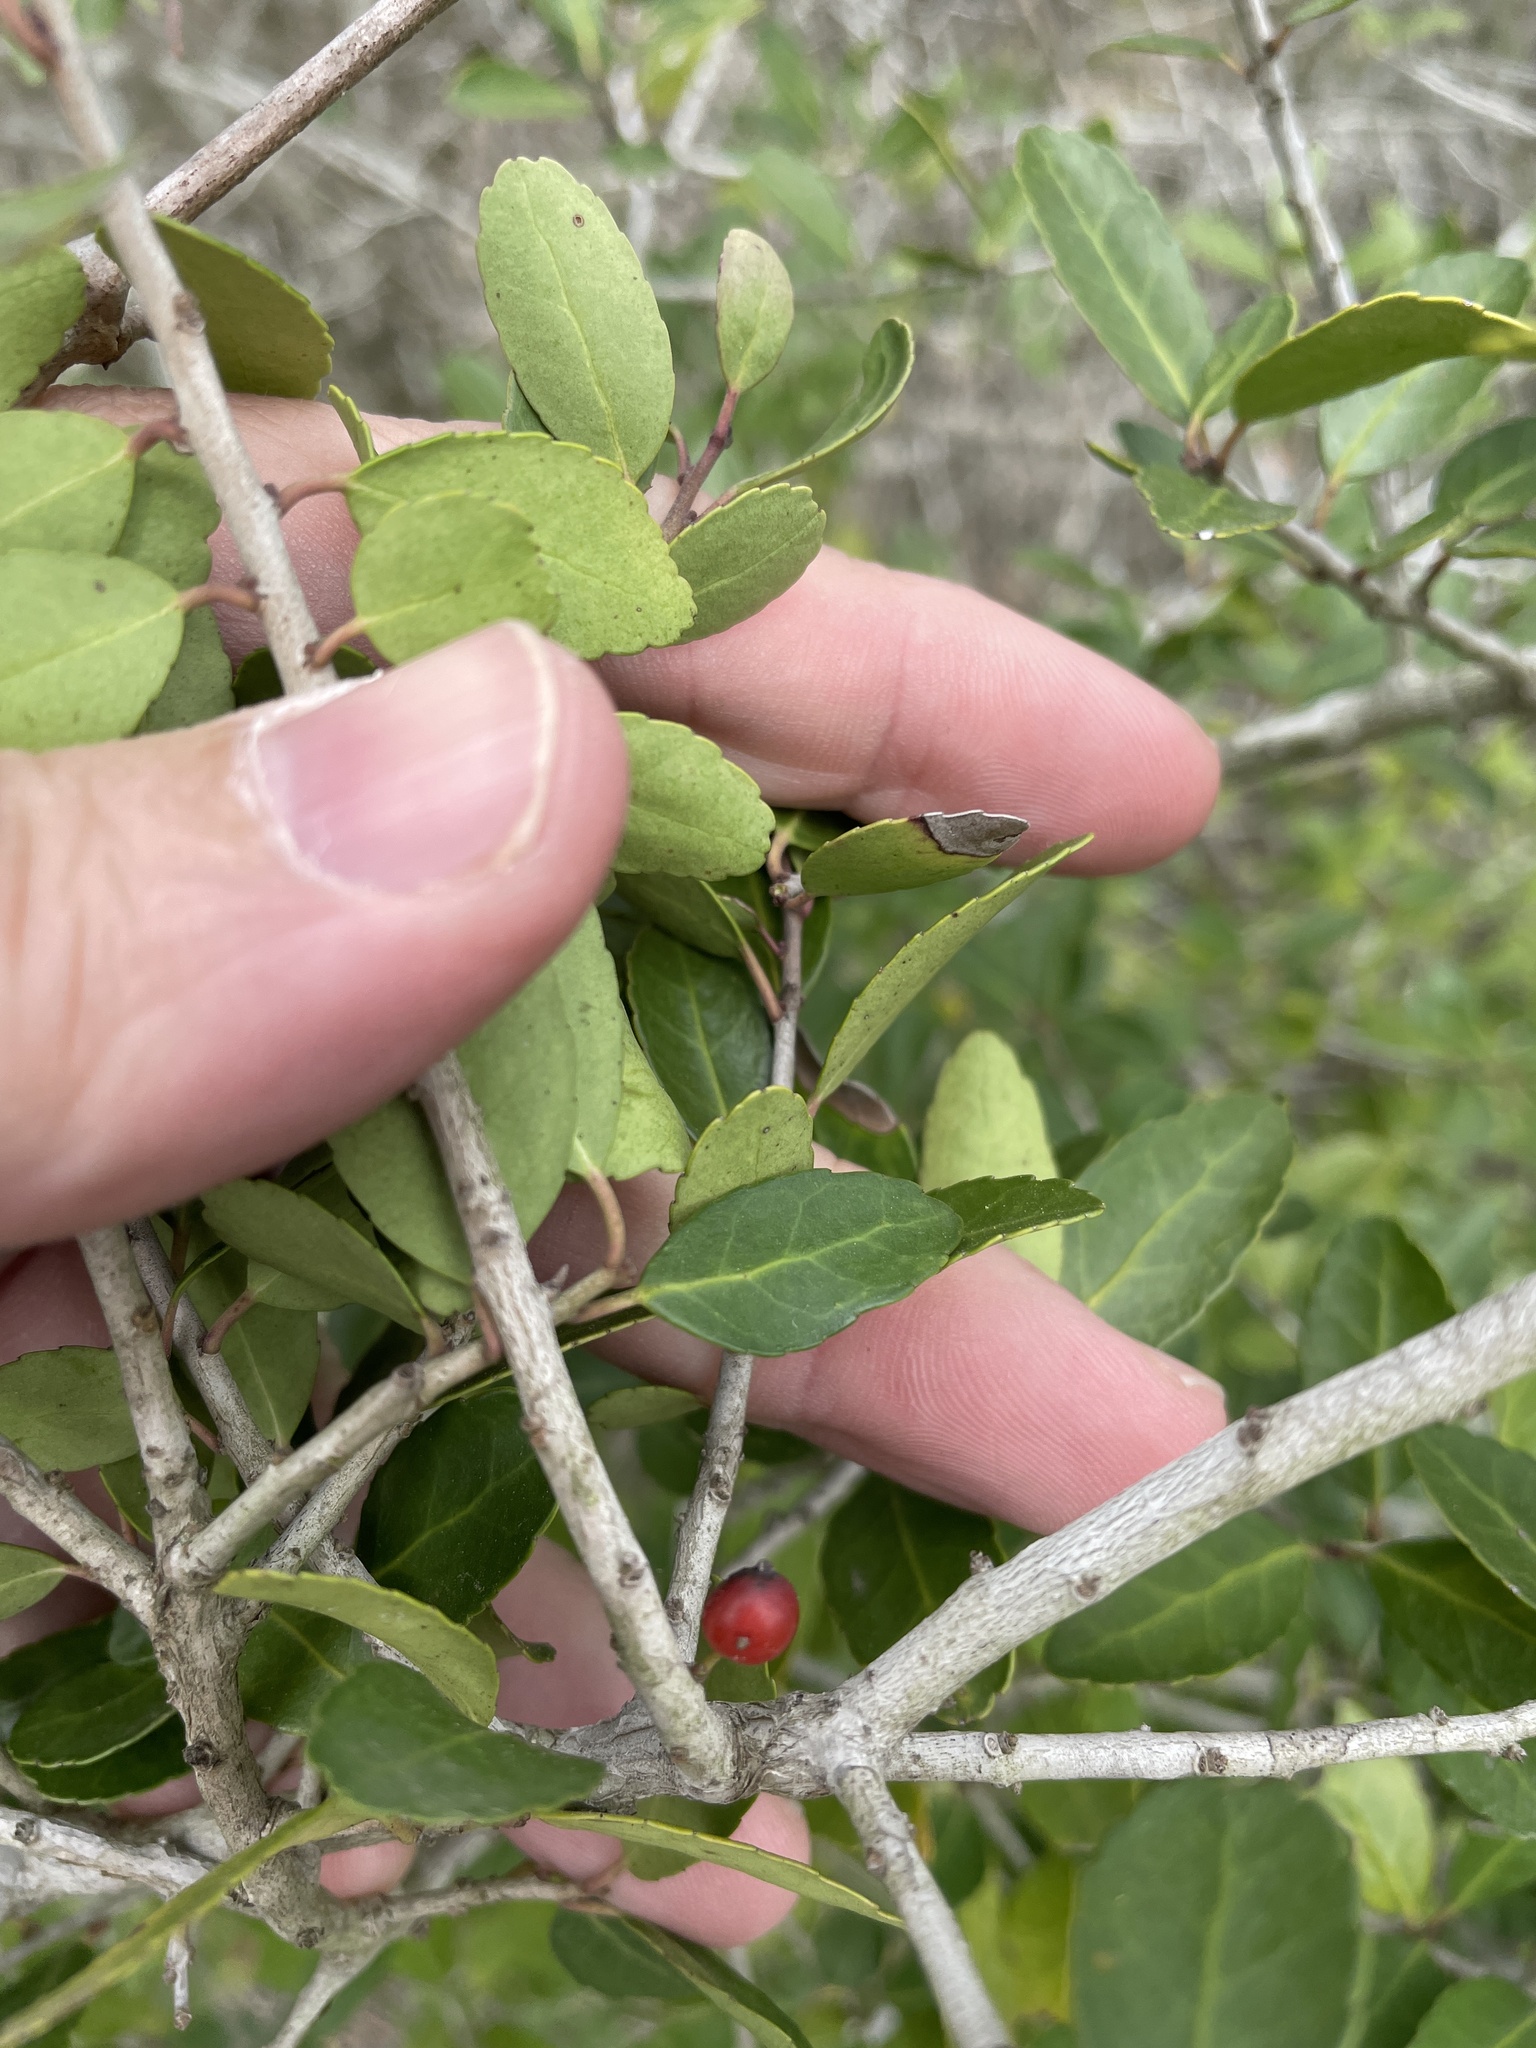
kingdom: Plantae
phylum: Tracheophyta
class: Magnoliopsida
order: Aquifoliales
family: Aquifoliaceae
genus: Ilex
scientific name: Ilex vomitoria
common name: Yaupon holly
